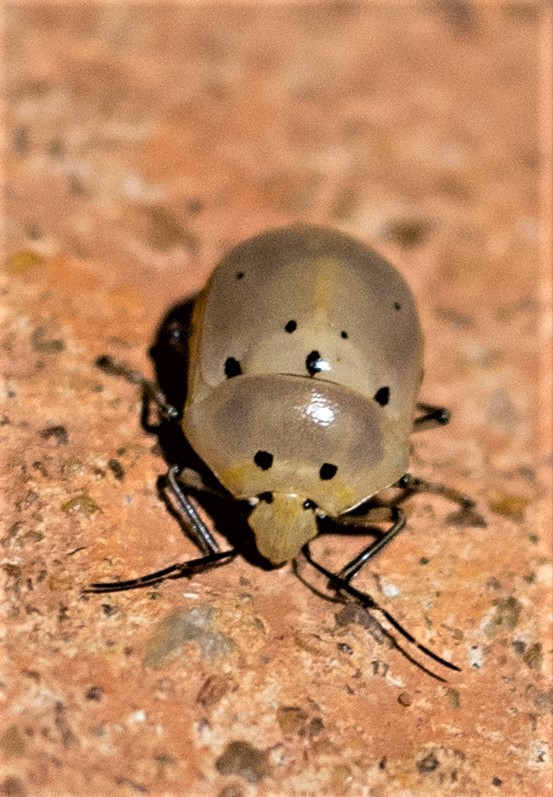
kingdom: Animalia
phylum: Arthropoda
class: Insecta
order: Hemiptera
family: Scutelleridae
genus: Augocoris
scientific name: Augocoris gomesii
